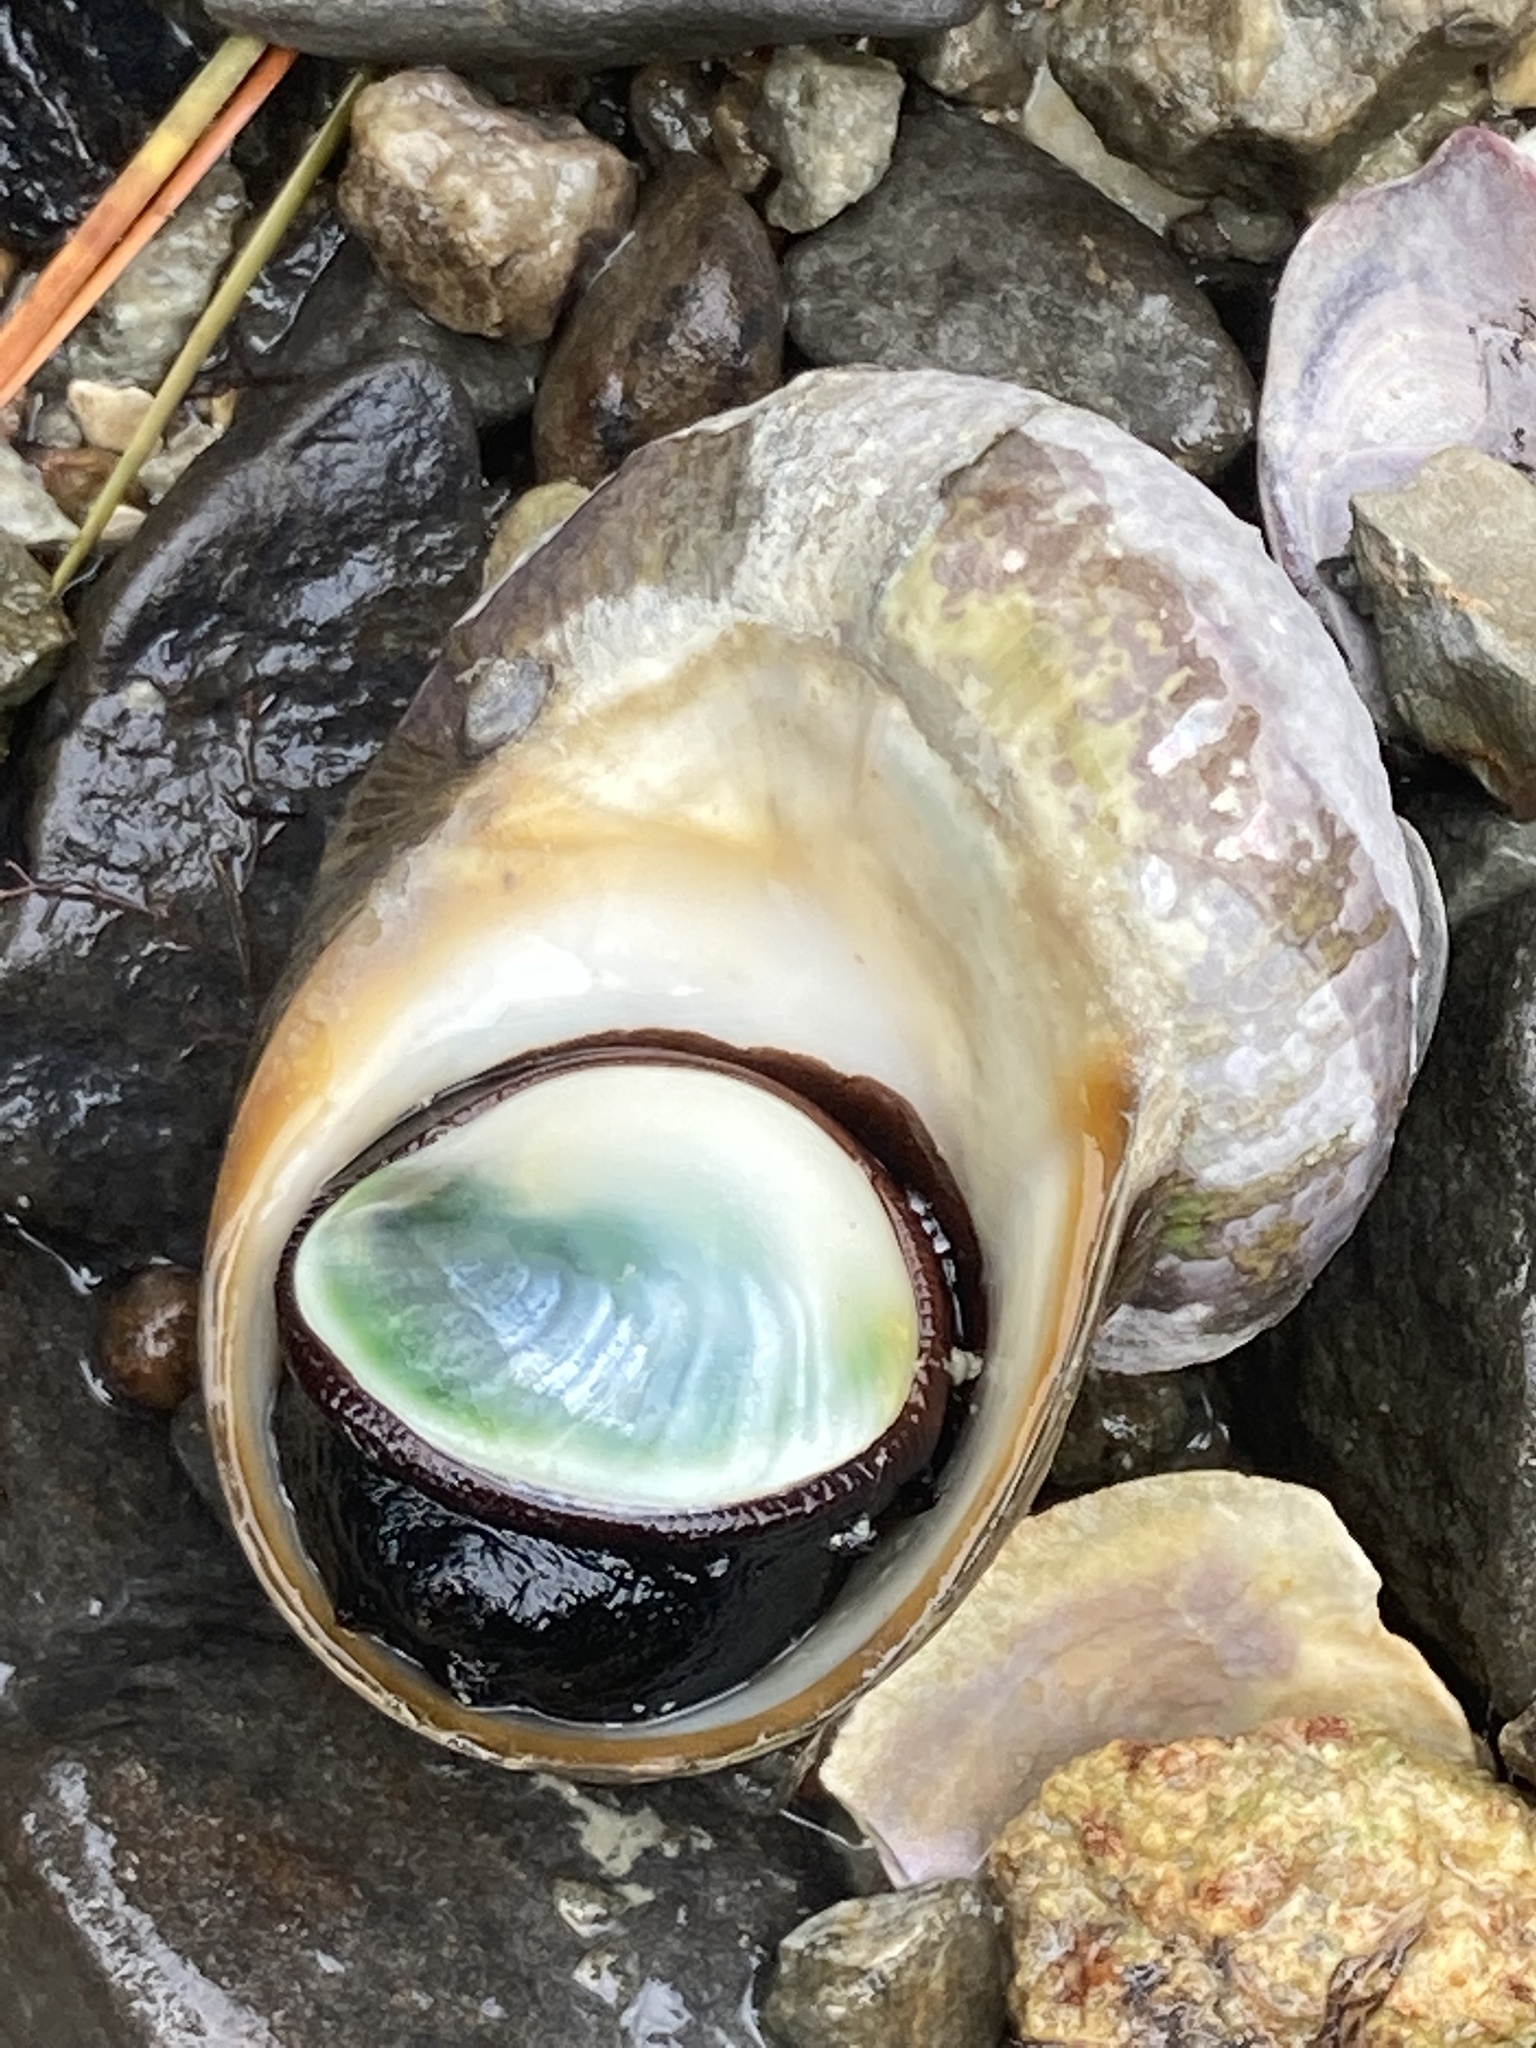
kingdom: Animalia
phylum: Mollusca
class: Gastropoda
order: Trochida
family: Turbinidae
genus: Lunella
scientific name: Lunella smaragda
